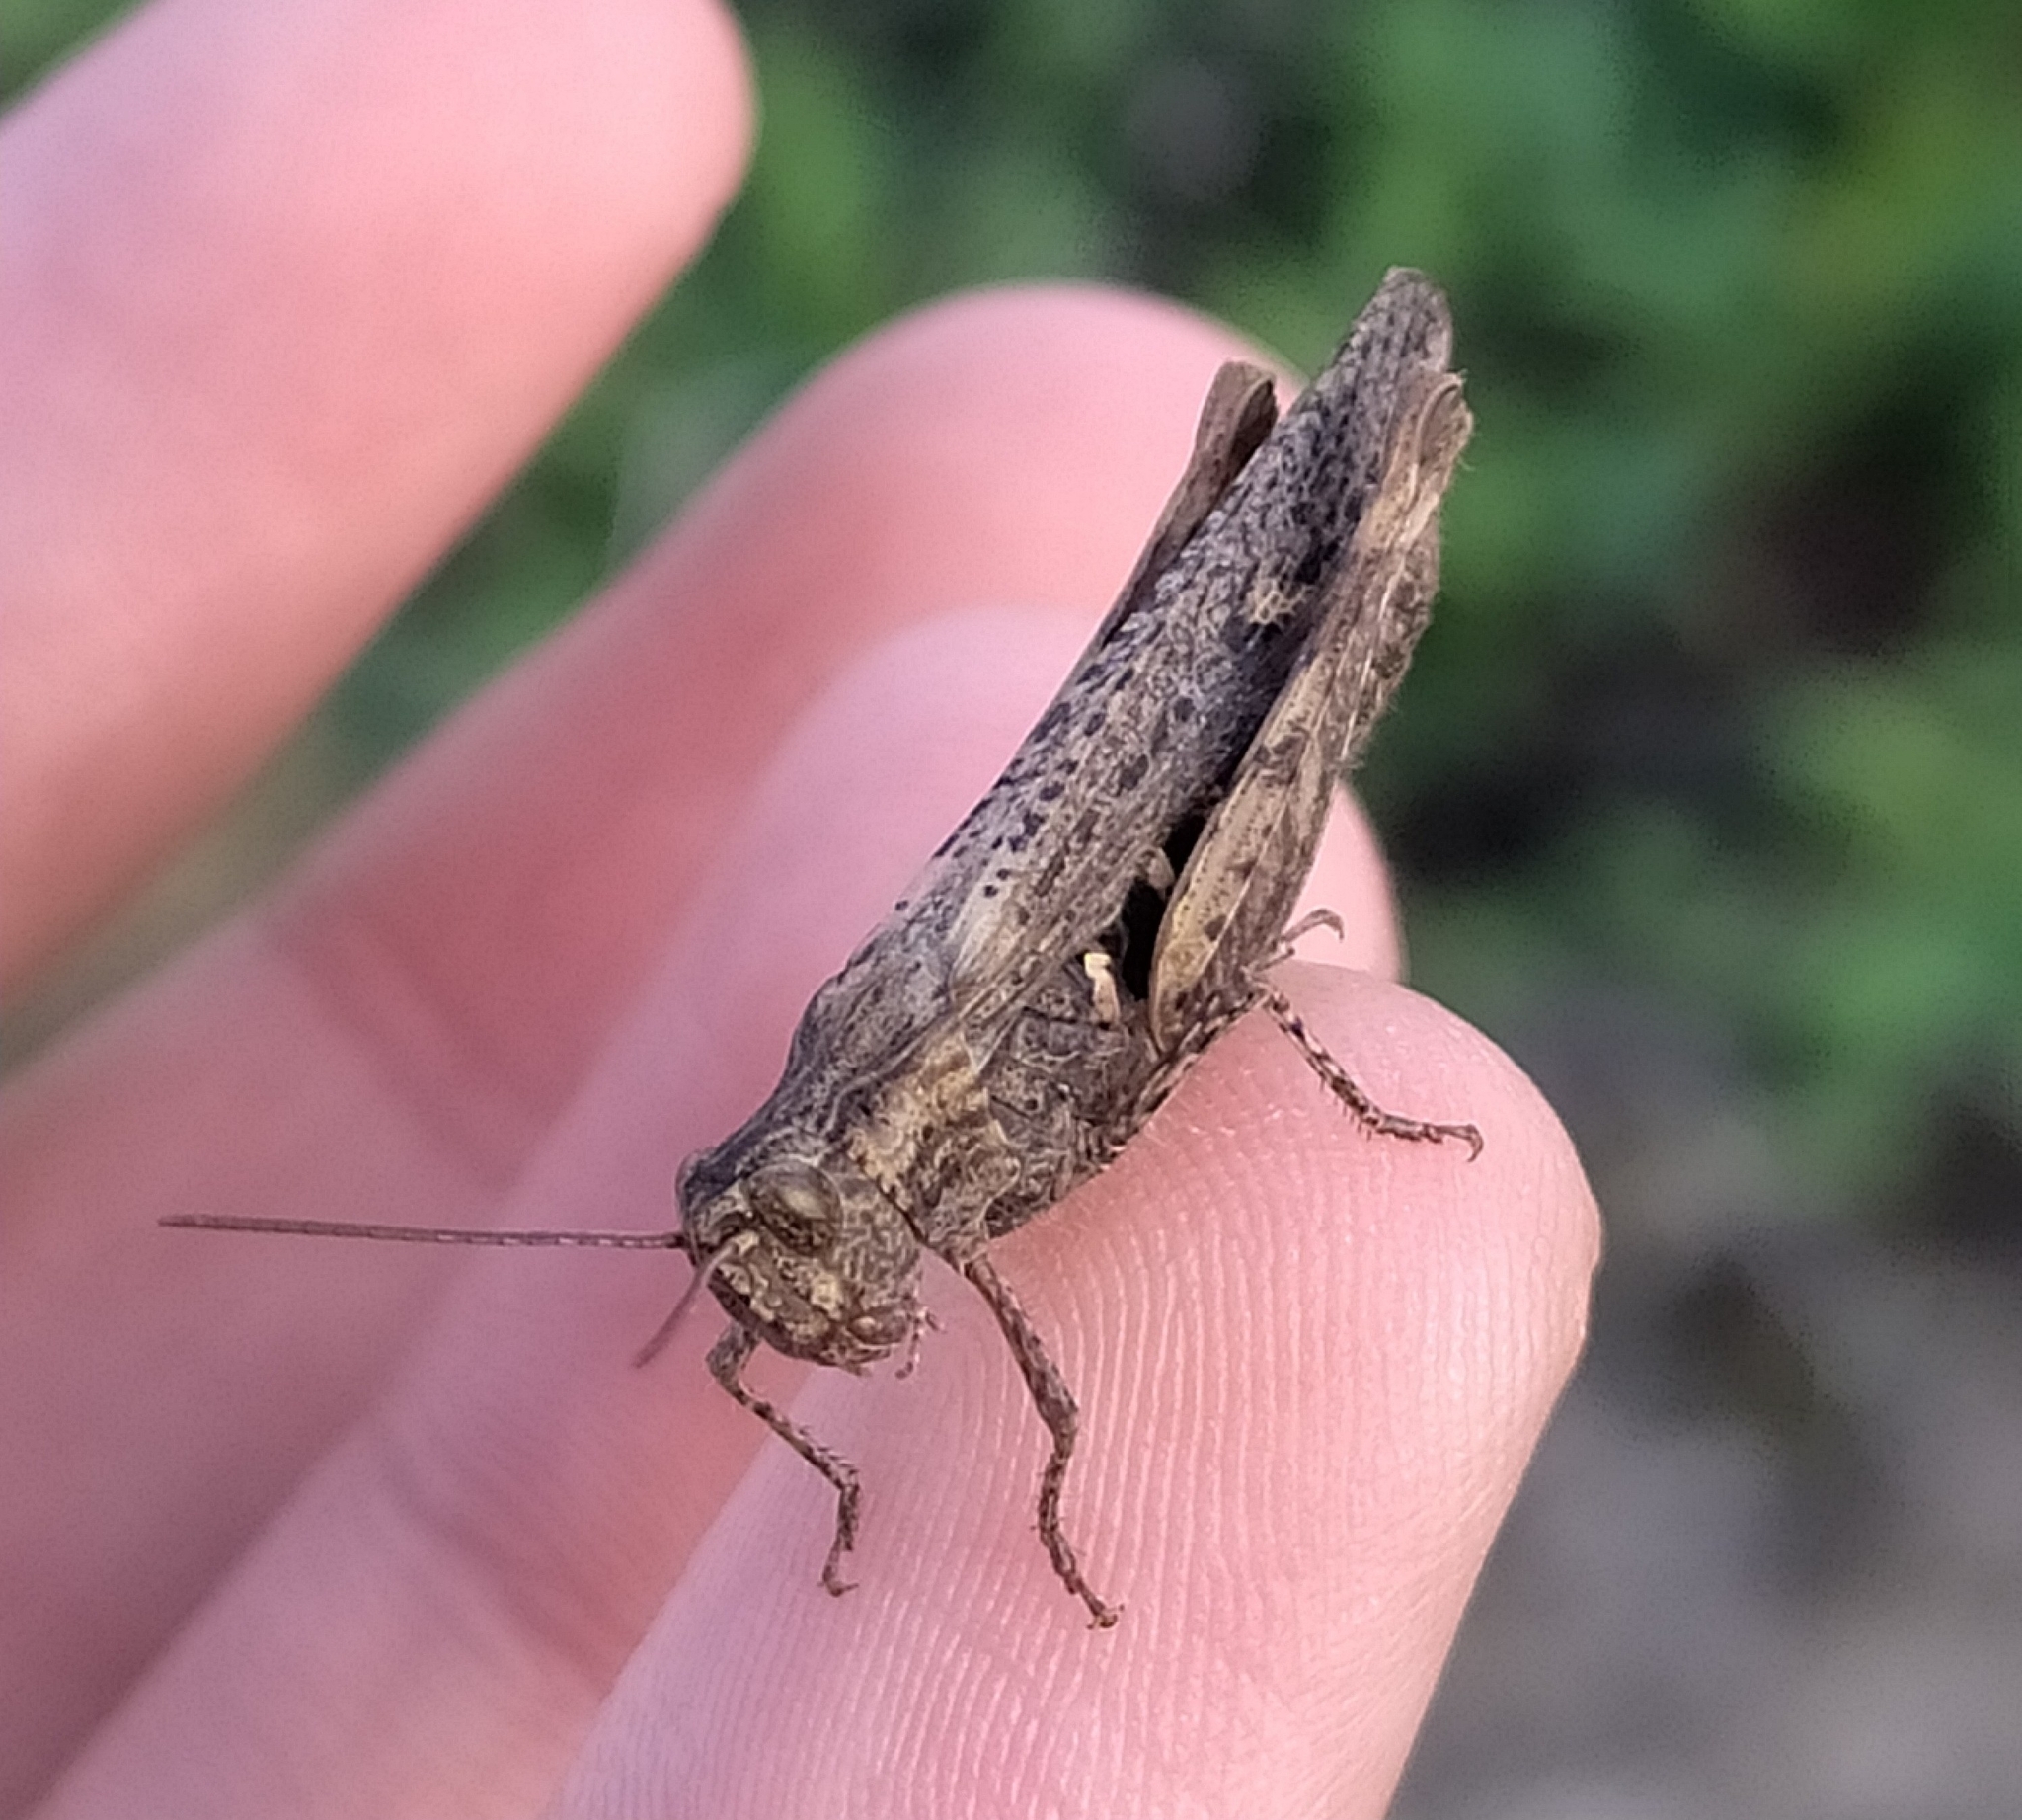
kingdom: Animalia
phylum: Arthropoda
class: Insecta
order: Orthoptera
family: Acrididae
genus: Chorthippus
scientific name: Chorthippus brunneus
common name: Field grasshopper
